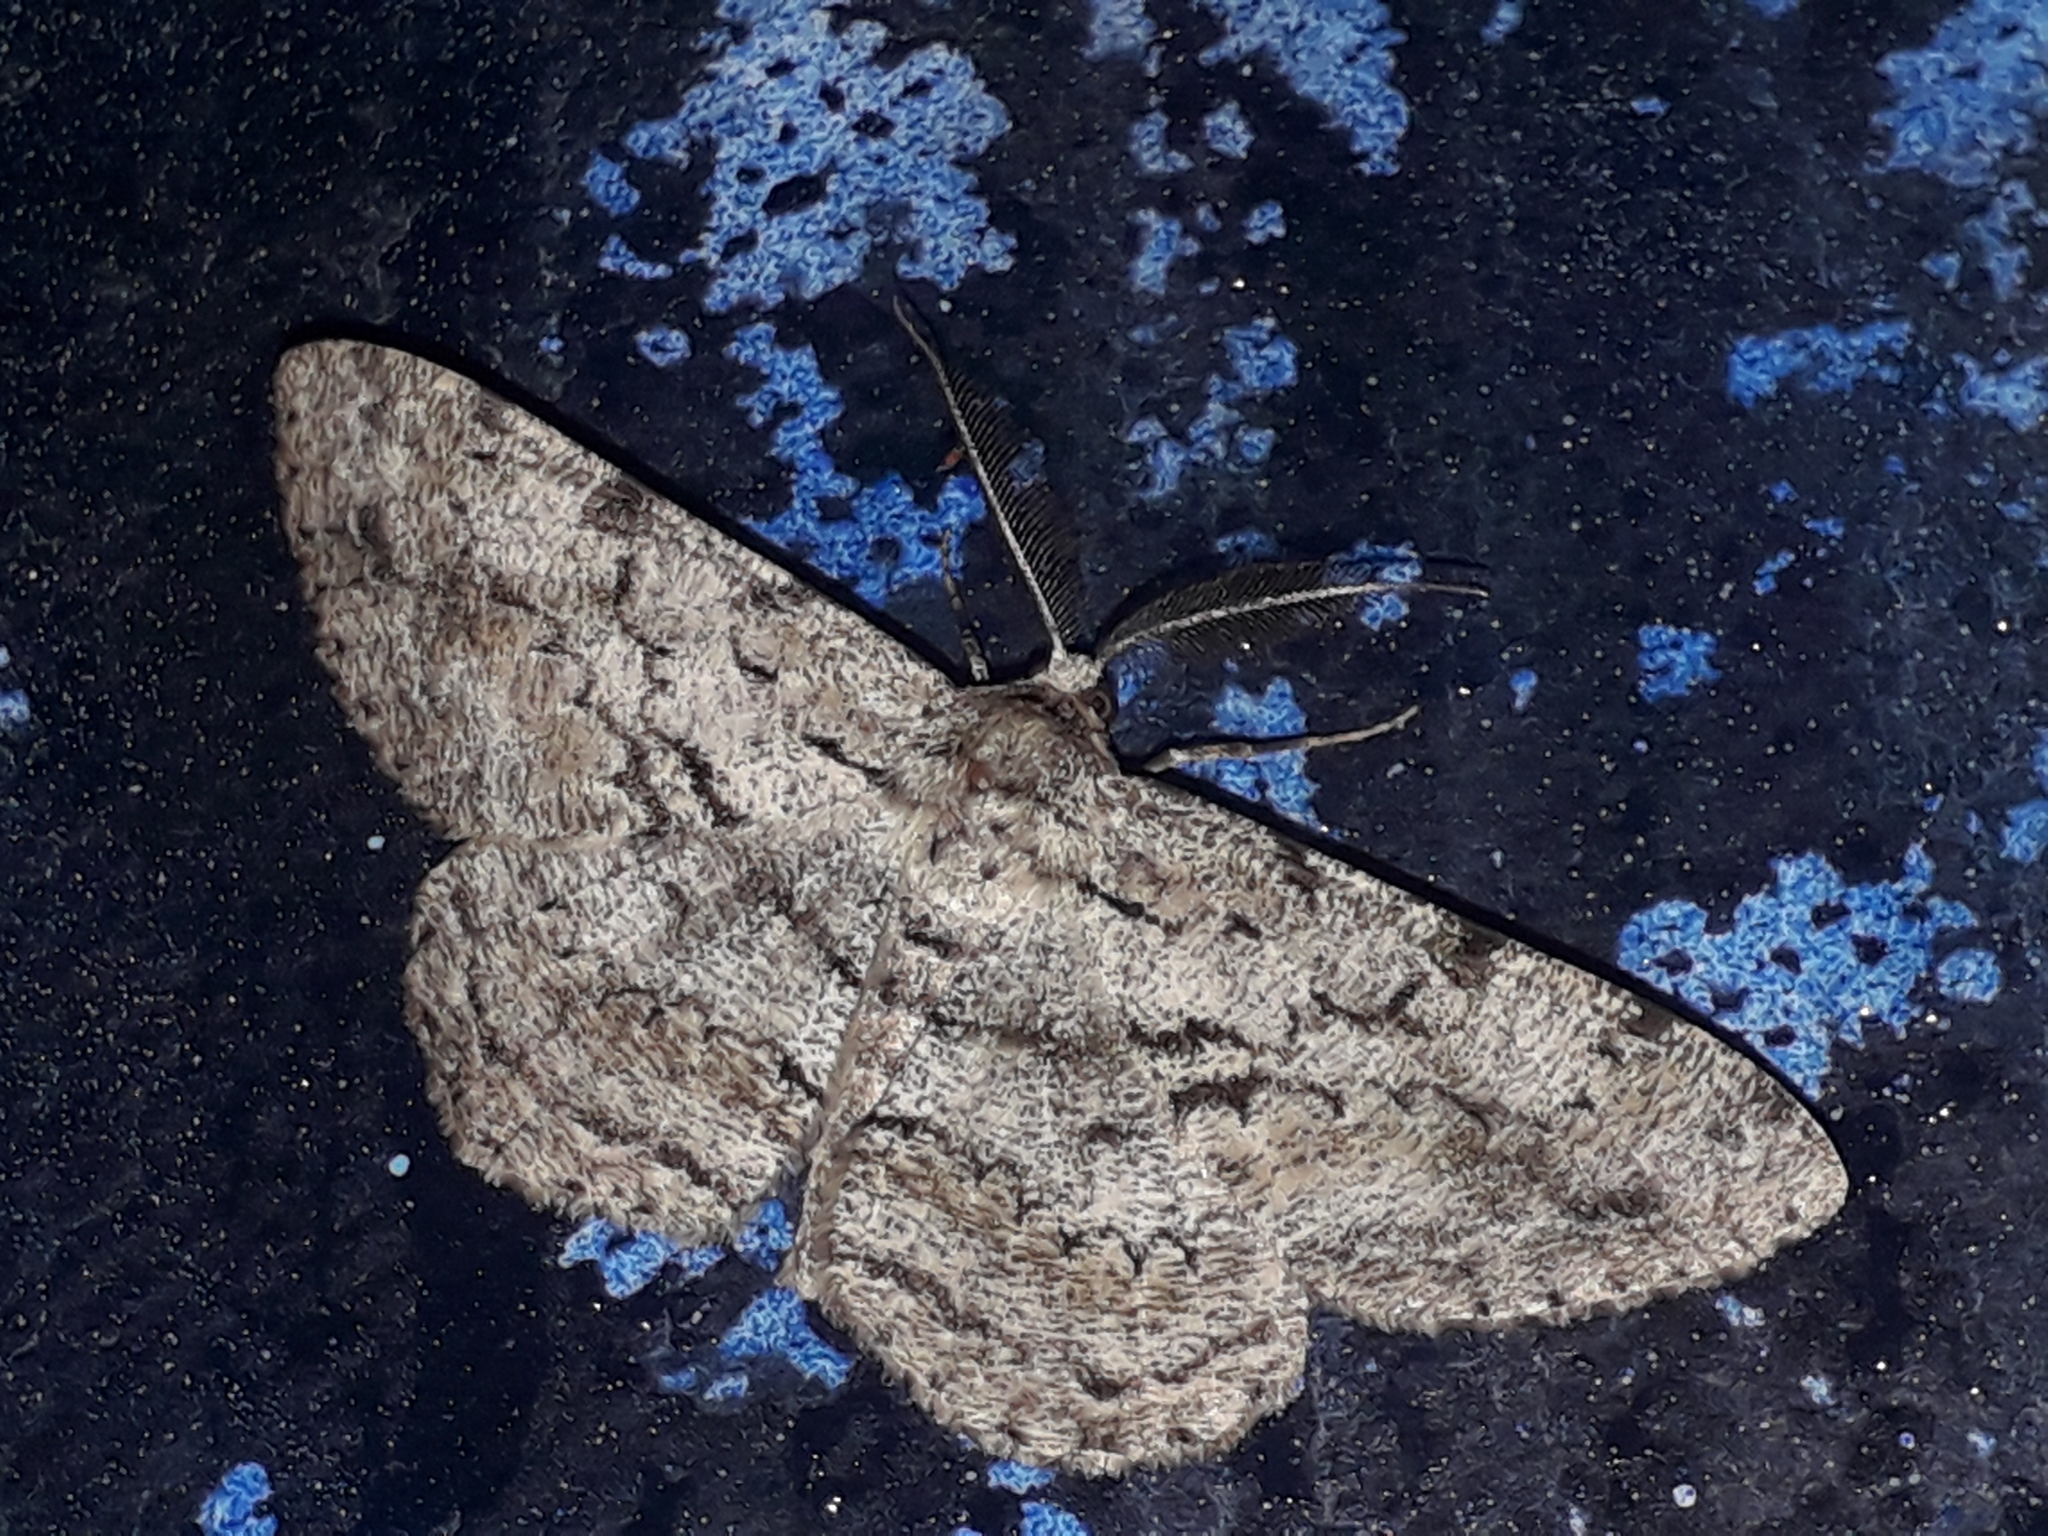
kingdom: Animalia
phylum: Arthropoda
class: Insecta
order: Lepidoptera
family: Geometridae
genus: Hypomecis
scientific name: Hypomecis roboraria
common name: Great oak beauty
